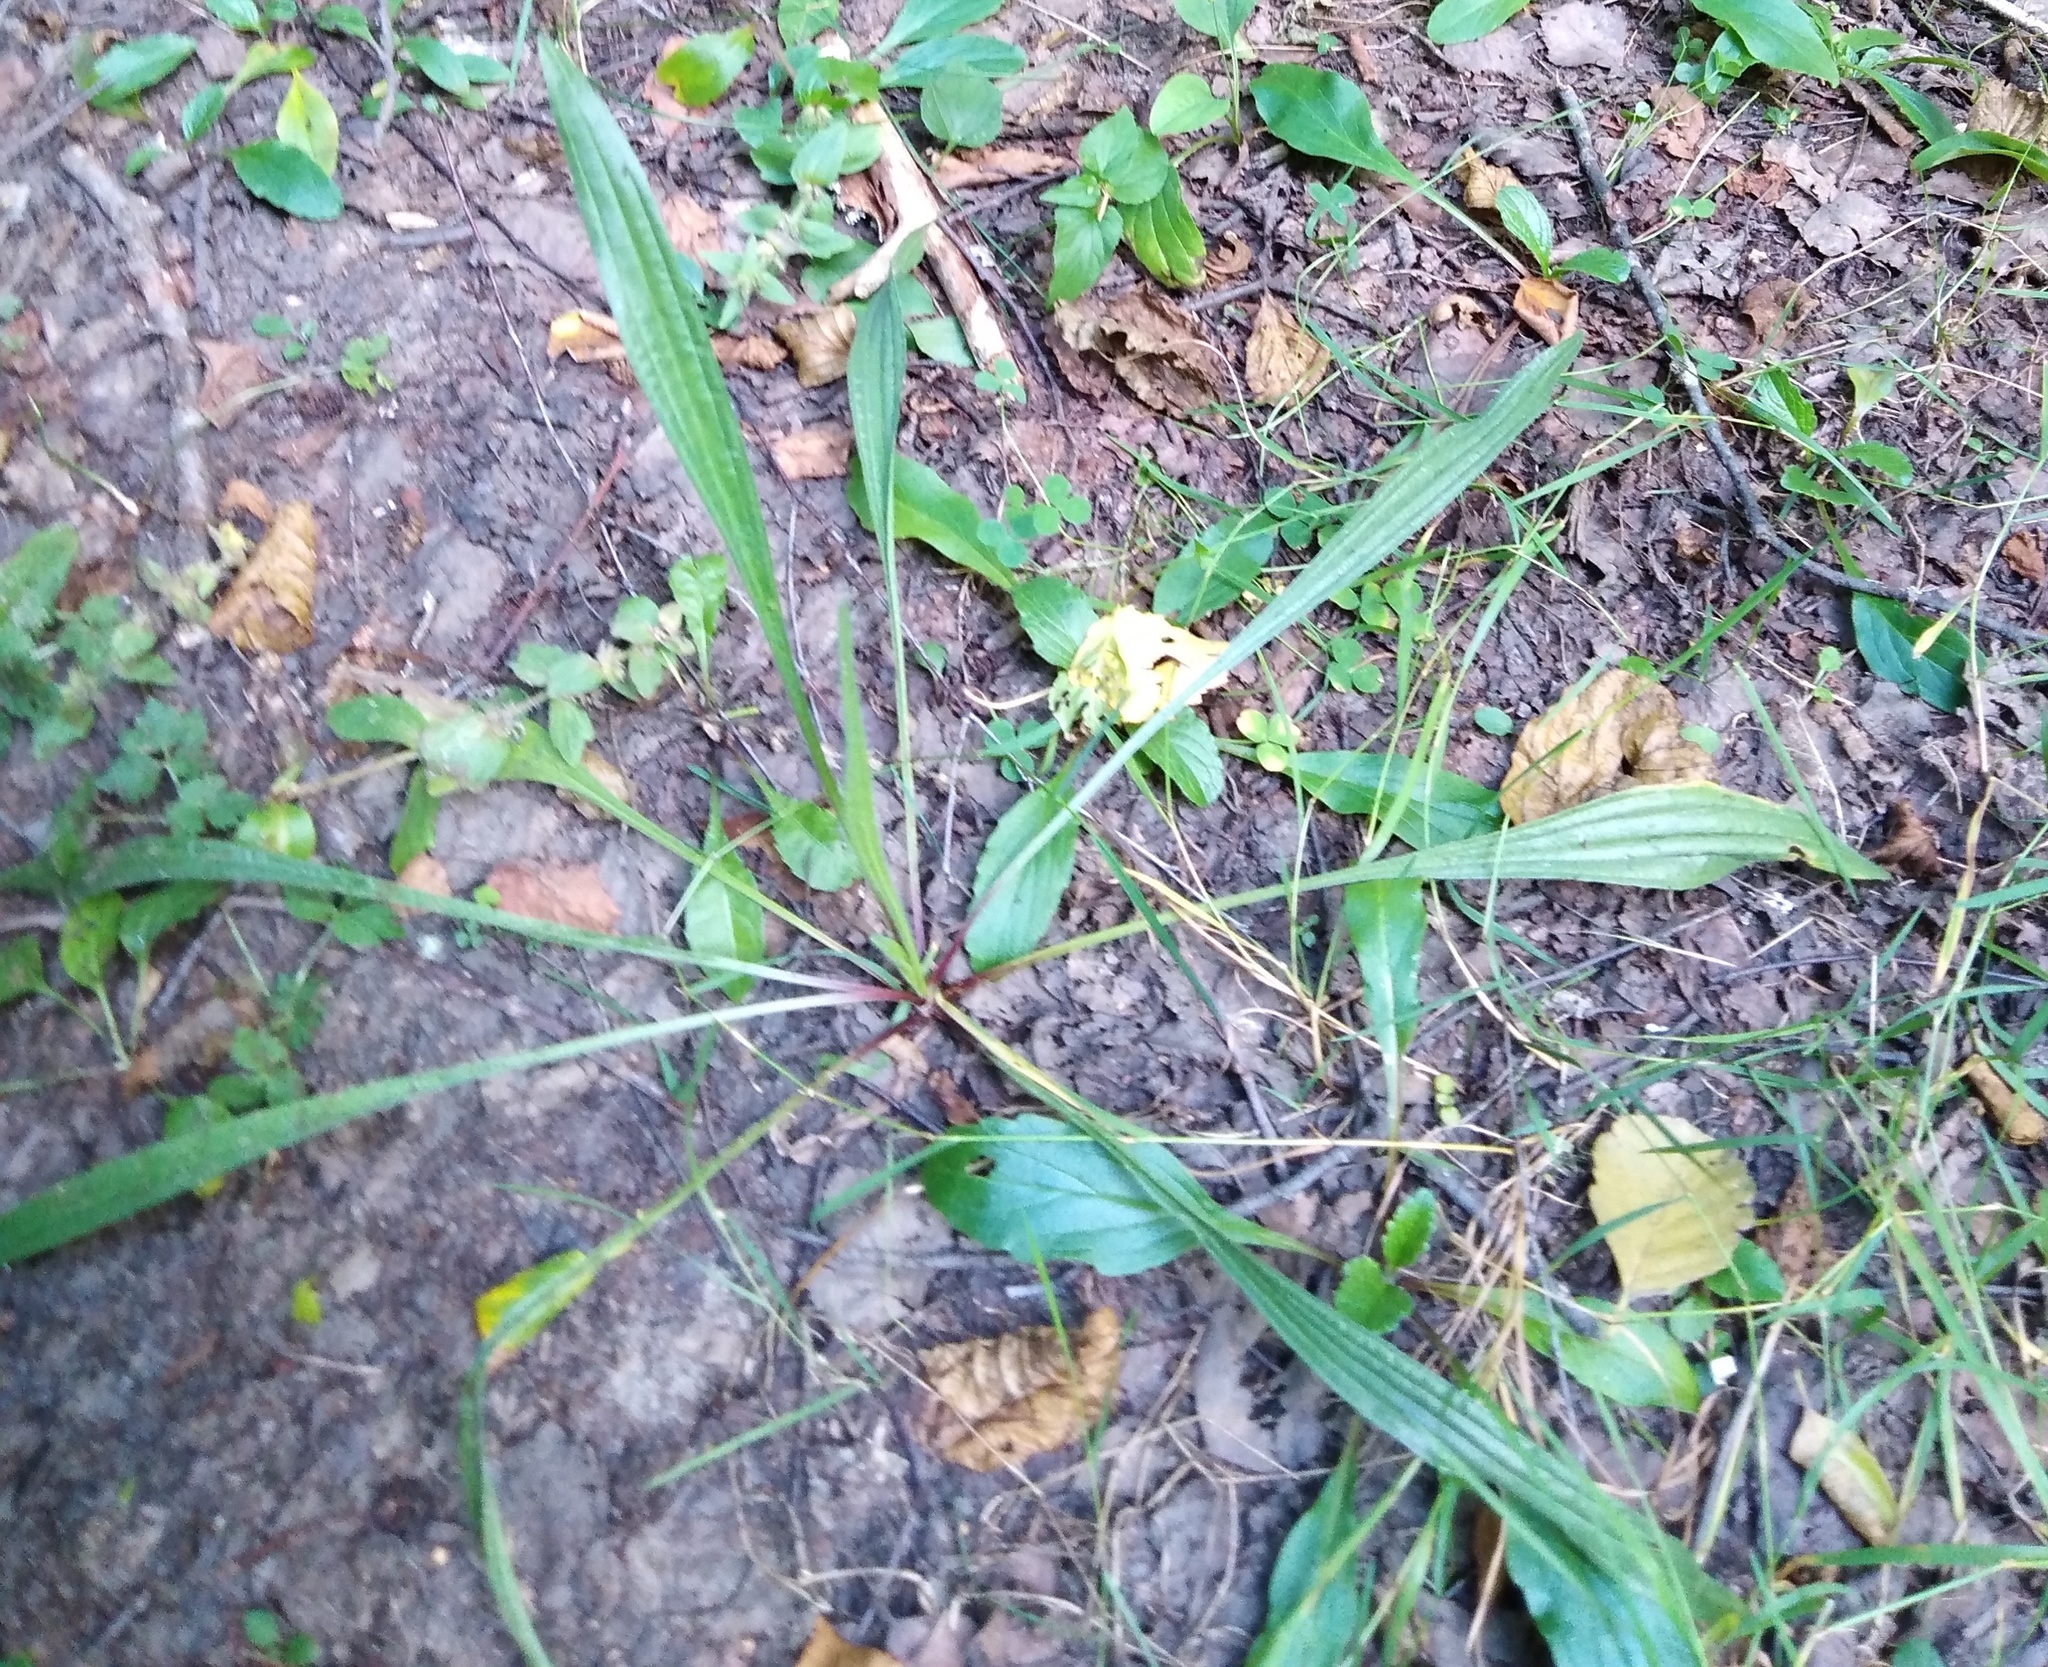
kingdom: Plantae
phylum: Tracheophyta
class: Magnoliopsida
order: Lamiales
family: Plantaginaceae
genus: Plantago
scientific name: Plantago lanceolata
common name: Ribwort plantain
